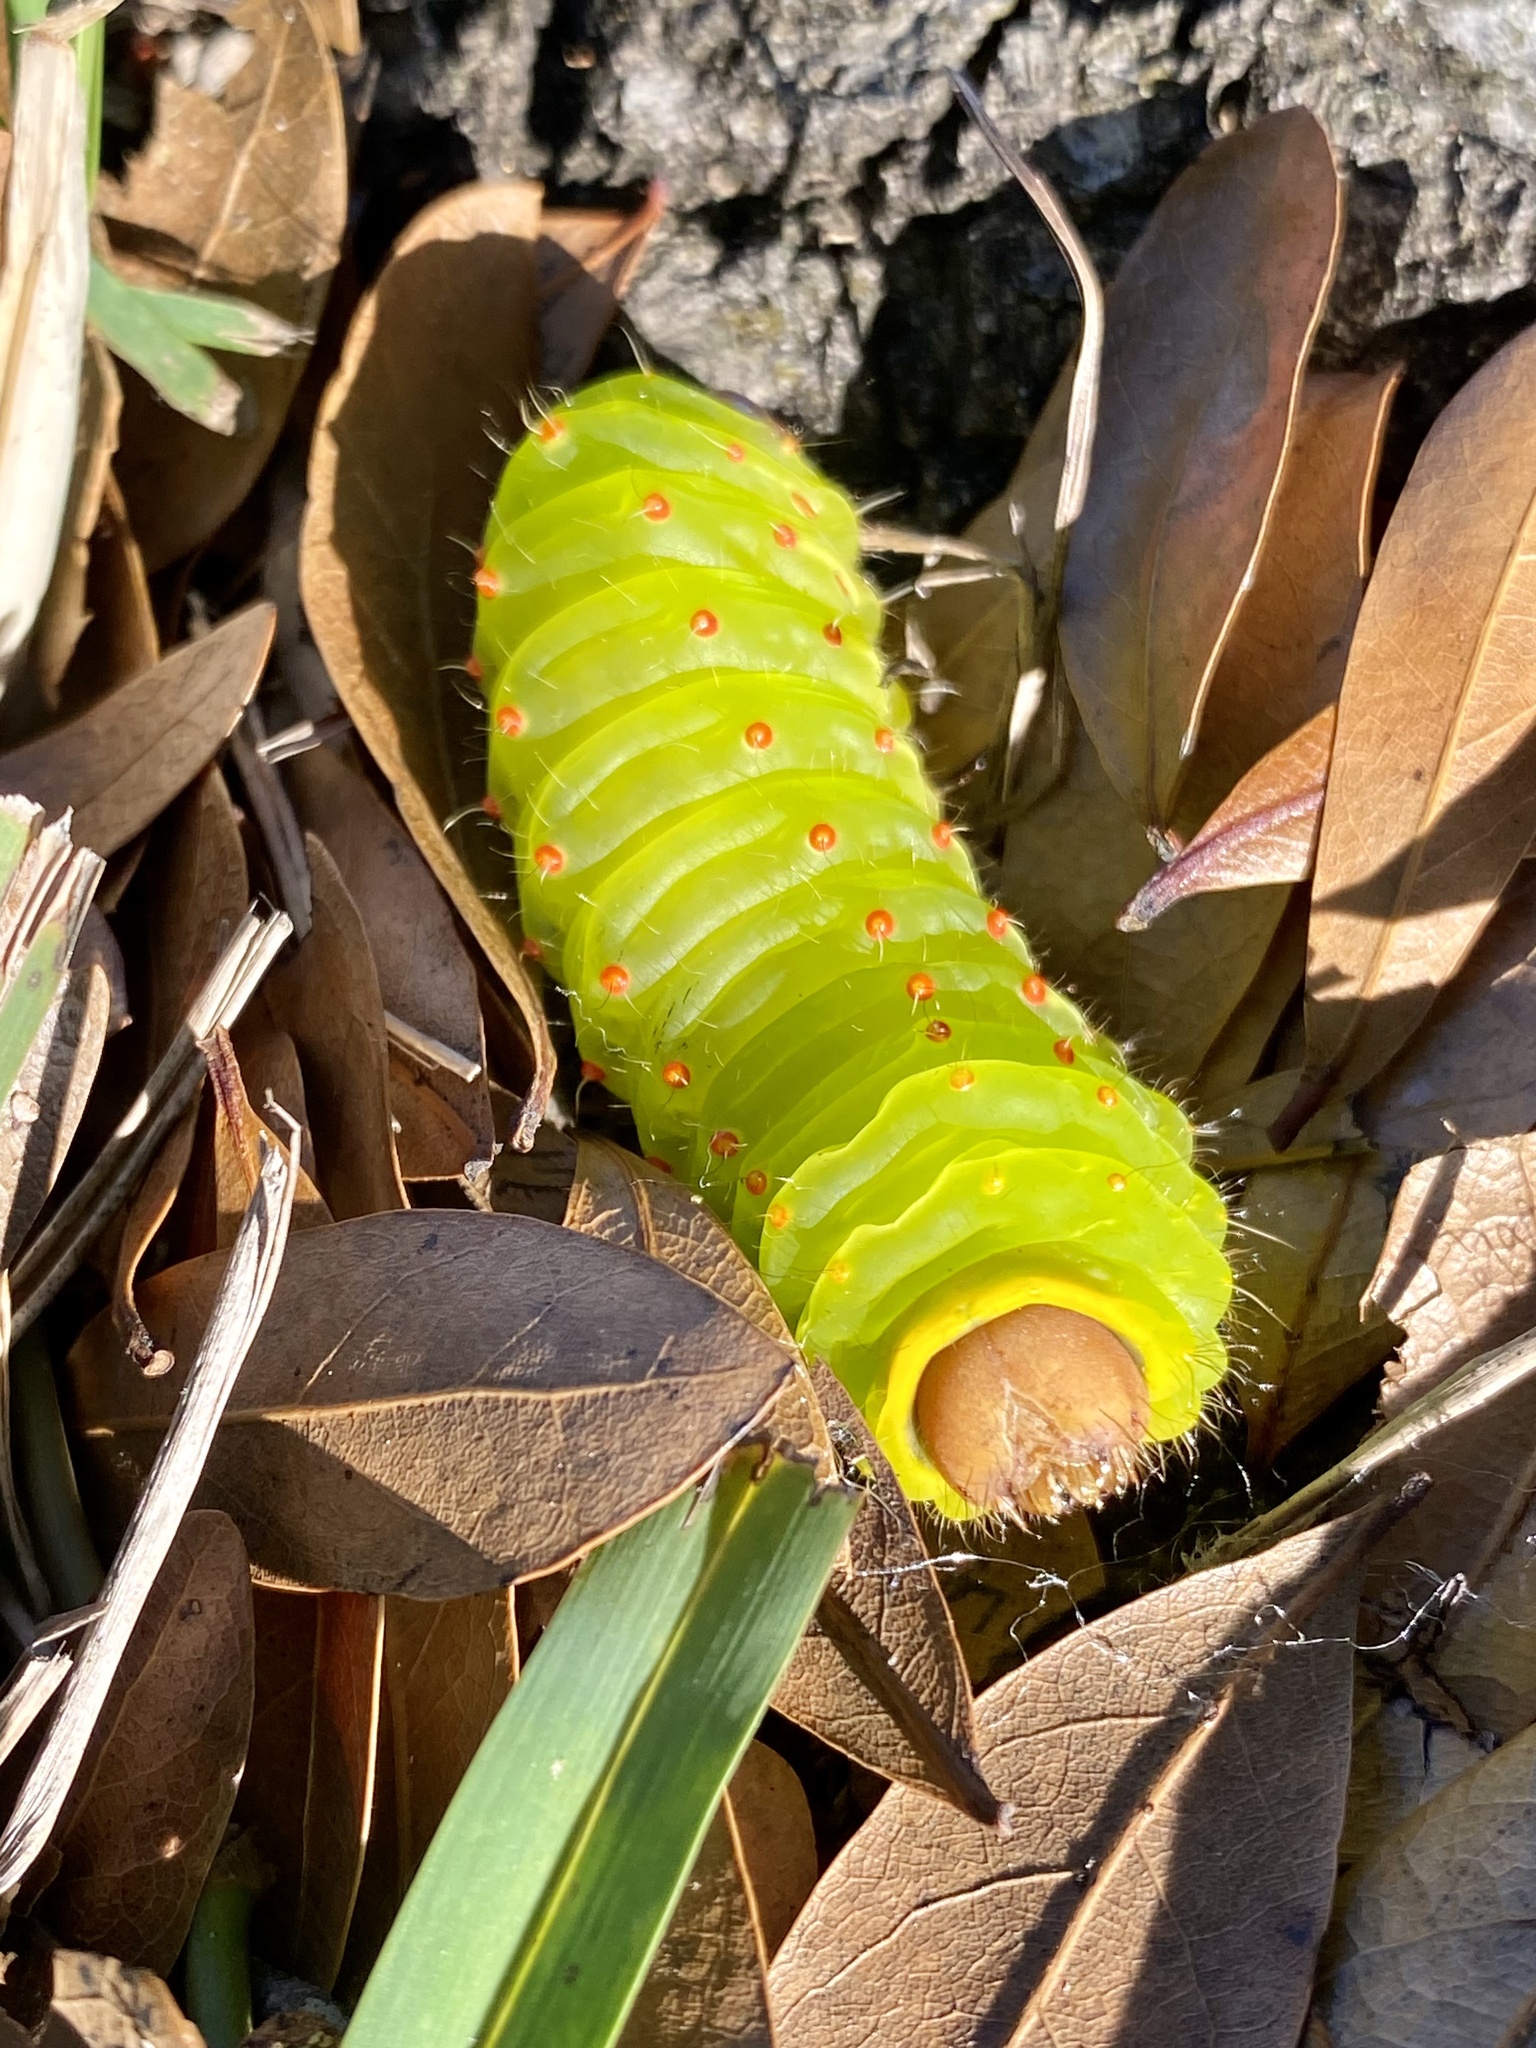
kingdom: Animalia
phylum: Arthropoda
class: Insecta
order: Lepidoptera
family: Saturniidae
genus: Antheraea
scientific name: Antheraea polyphemus
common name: Polyphemus moth
